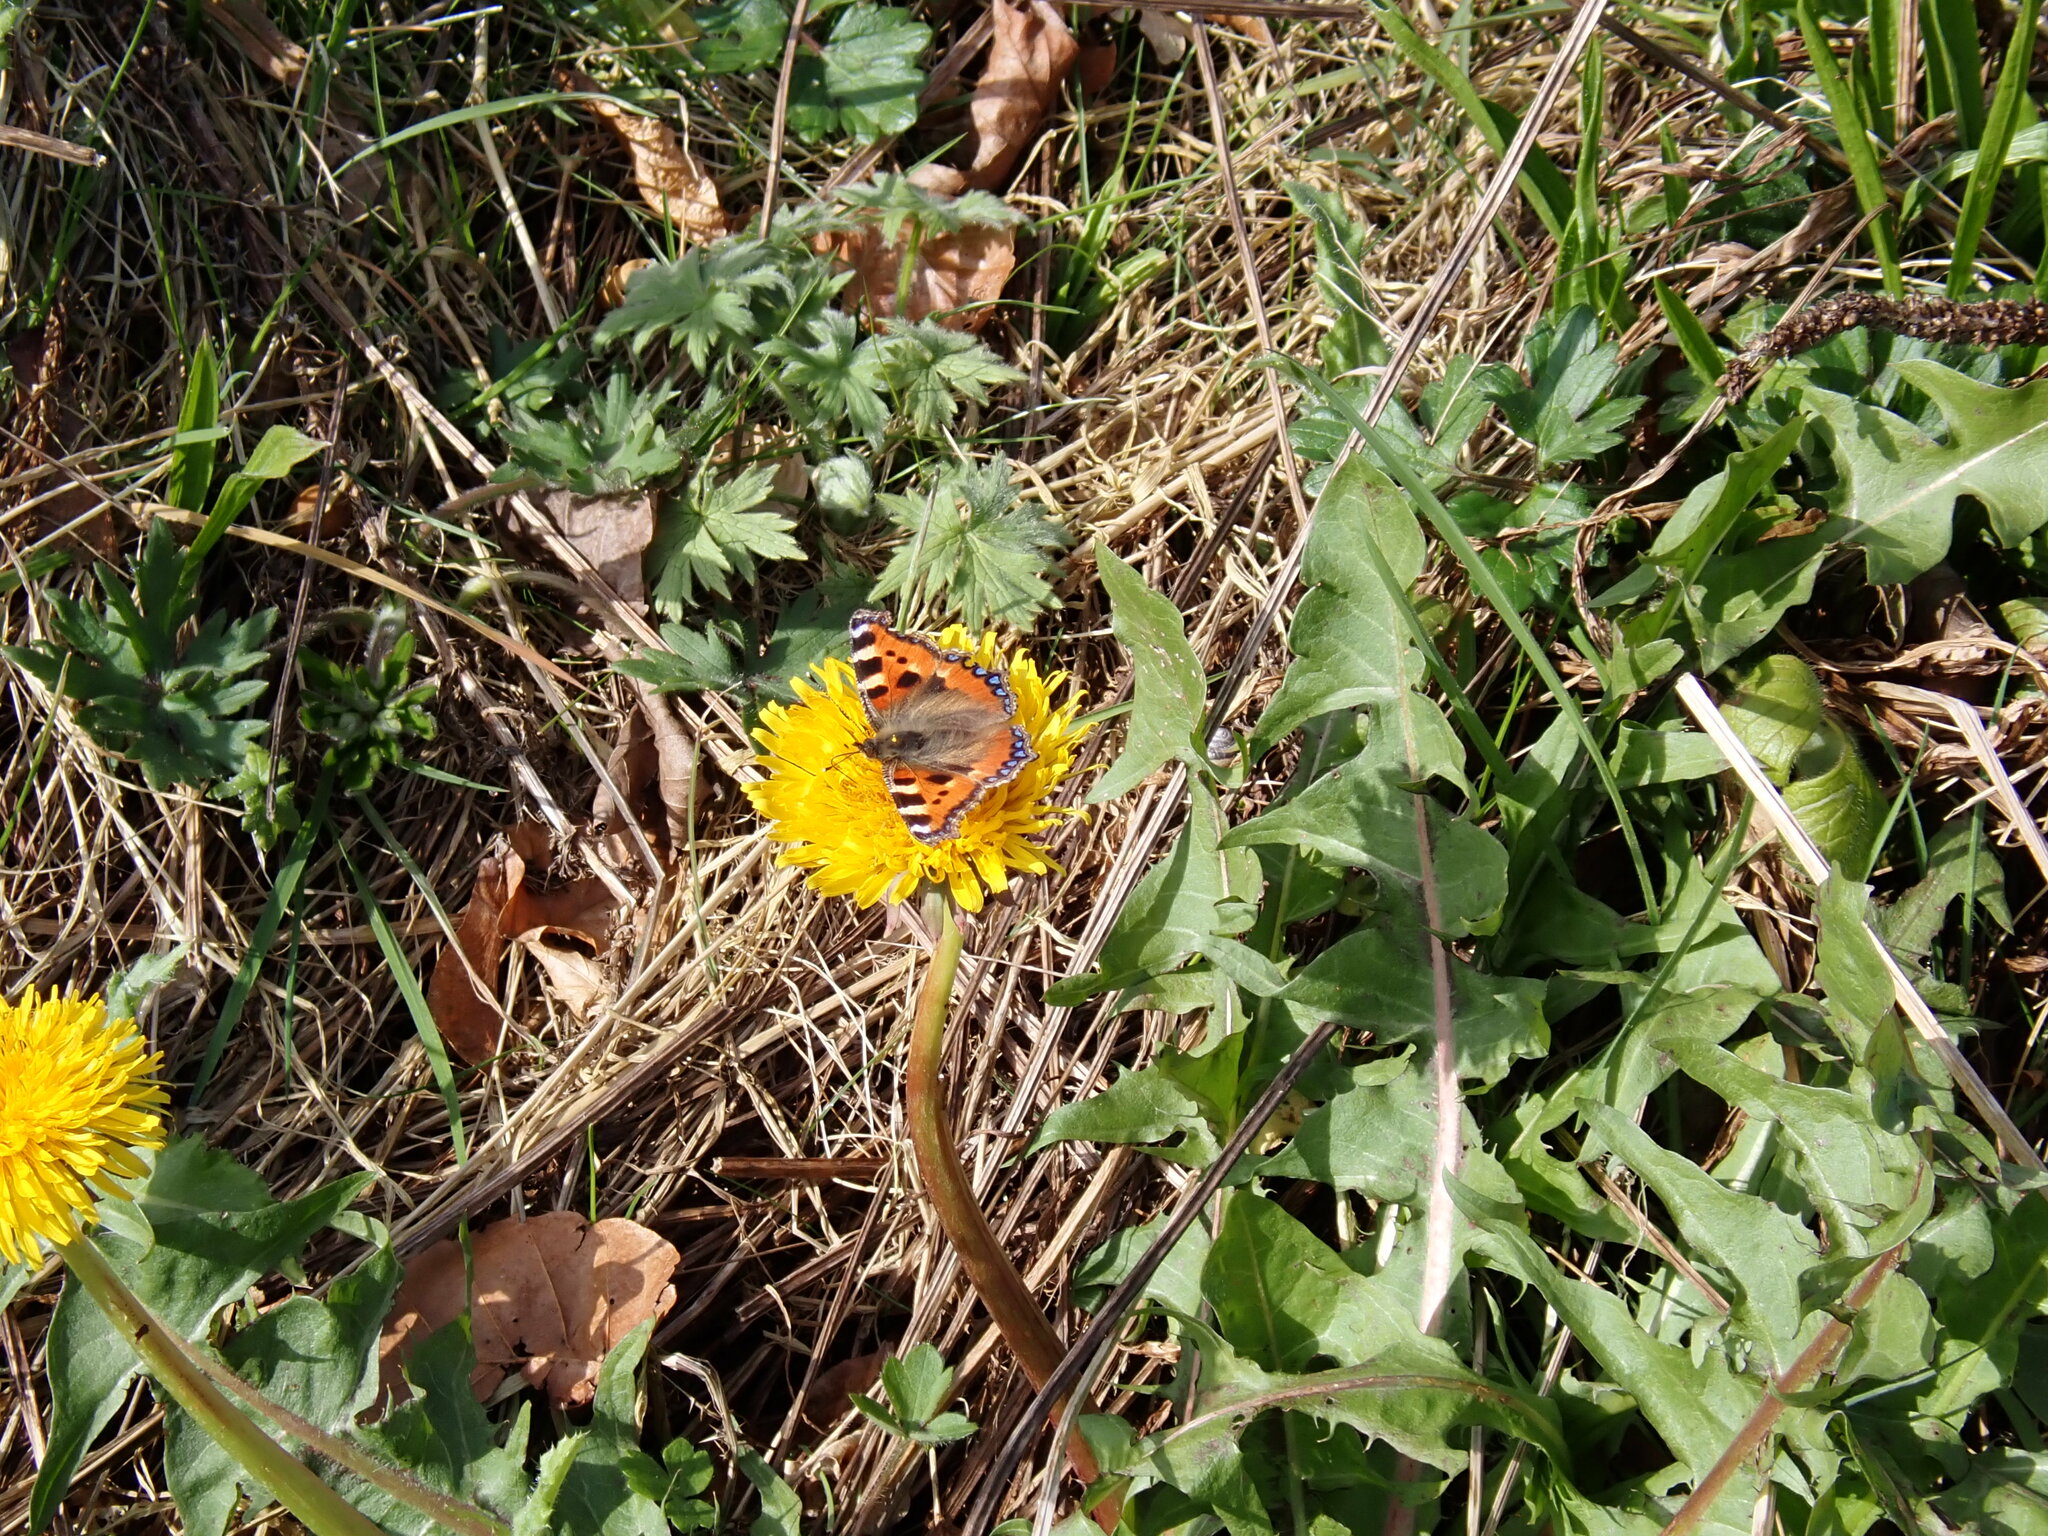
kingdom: Animalia
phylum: Arthropoda
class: Insecta
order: Lepidoptera
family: Nymphalidae
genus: Aglais
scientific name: Aglais urticae
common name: Small tortoiseshell
